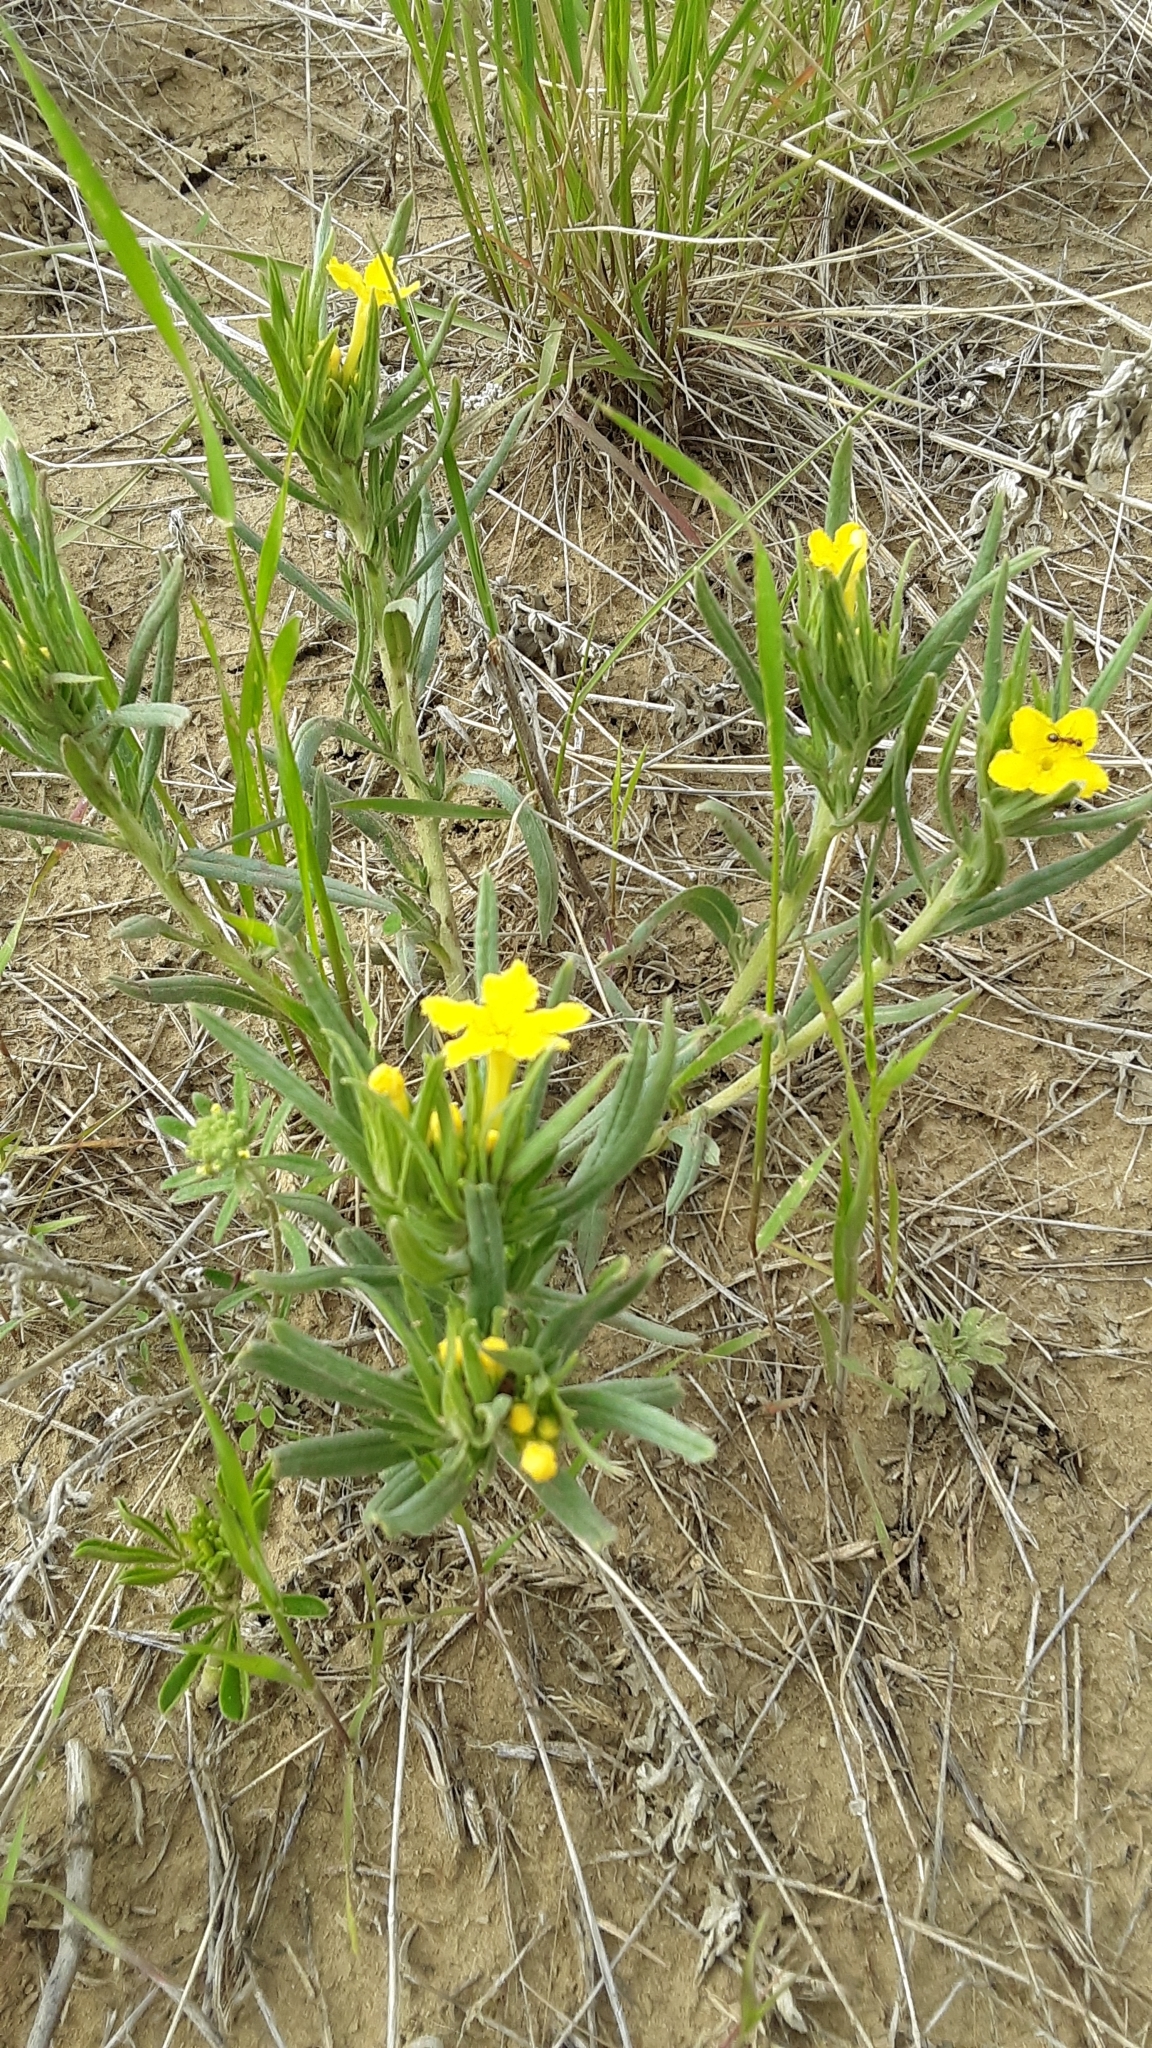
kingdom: Plantae
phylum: Tracheophyta
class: Magnoliopsida
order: Boraginales
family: Boraginaceae
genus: Lithospermum
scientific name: Lithospermum incisum
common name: Fringed gromwell
